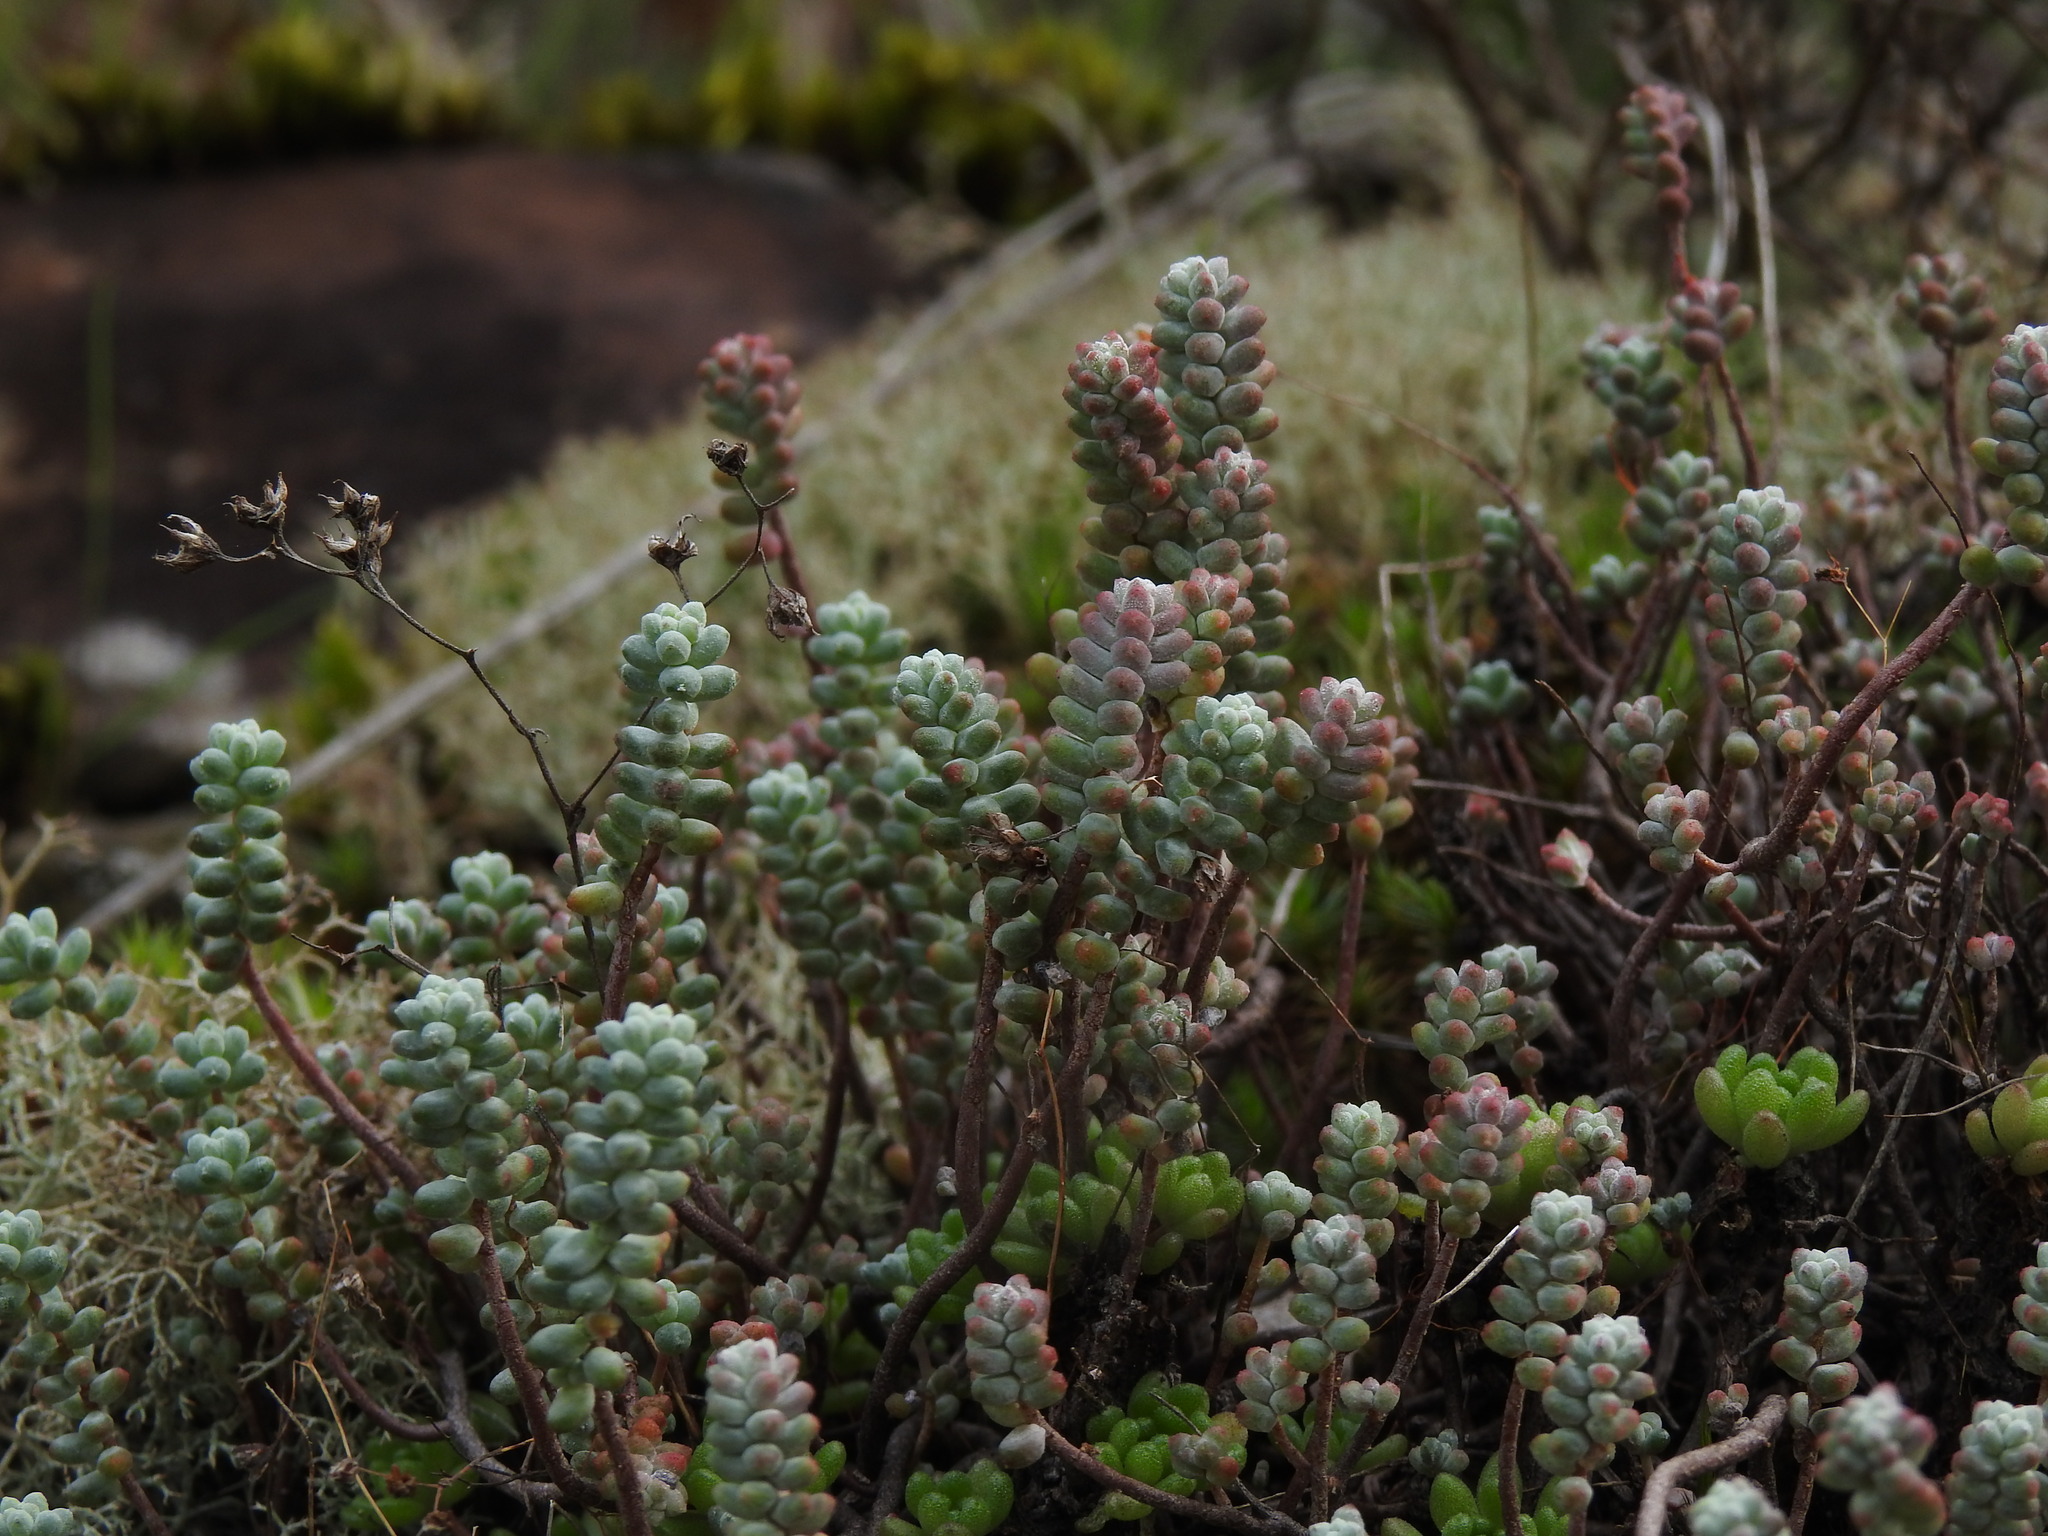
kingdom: Plantae
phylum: Tracheophyta
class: Magnoliopsida
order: Saxifragales
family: Crassulaceae
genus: Sedum
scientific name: Sedum brevifolium
